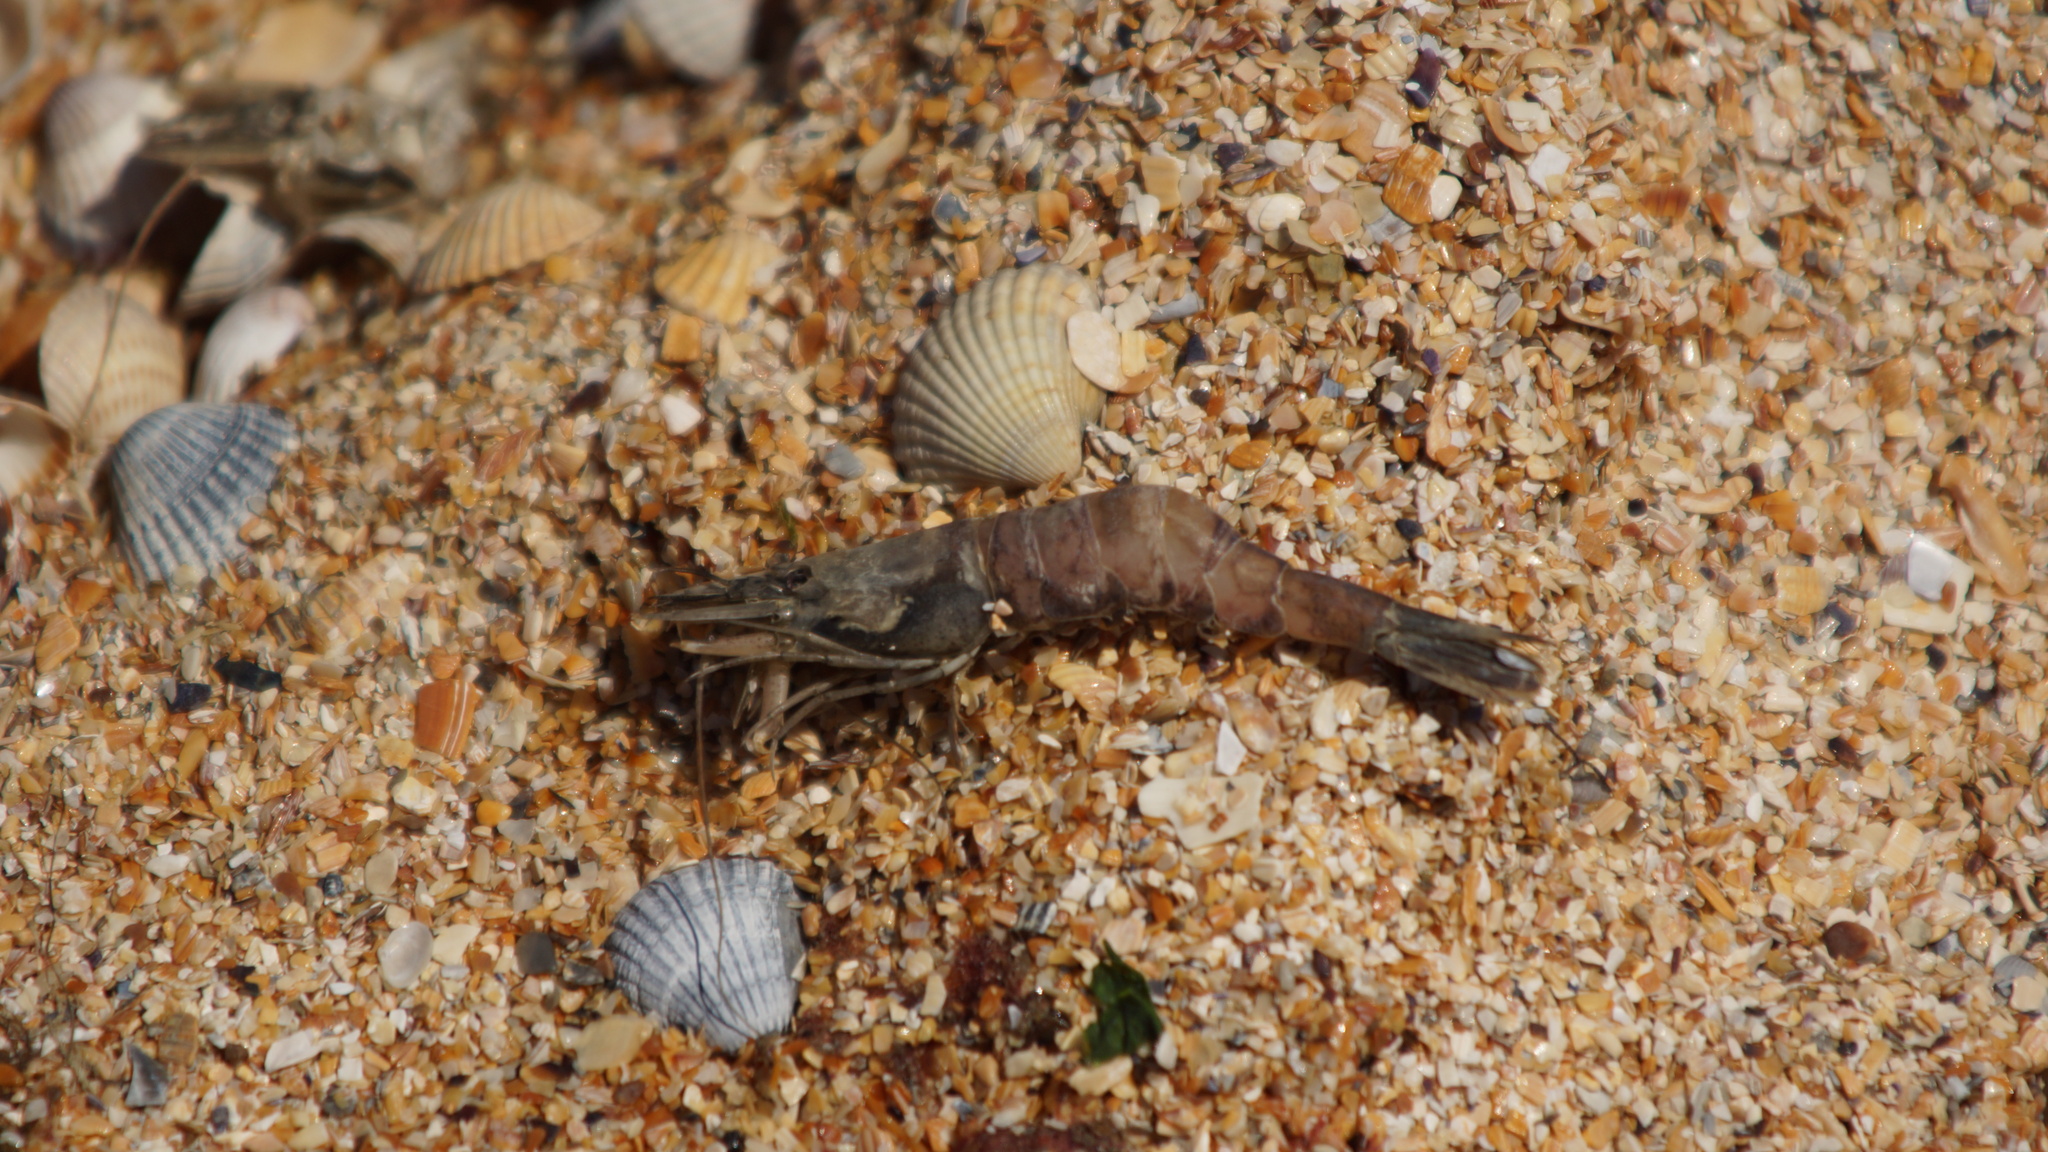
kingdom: Animalia
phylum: Arthropoda
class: Malacostraca
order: Decapoda
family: Crangonidae
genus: Crangon
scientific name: Crangon crangon
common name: Brown shrimp
